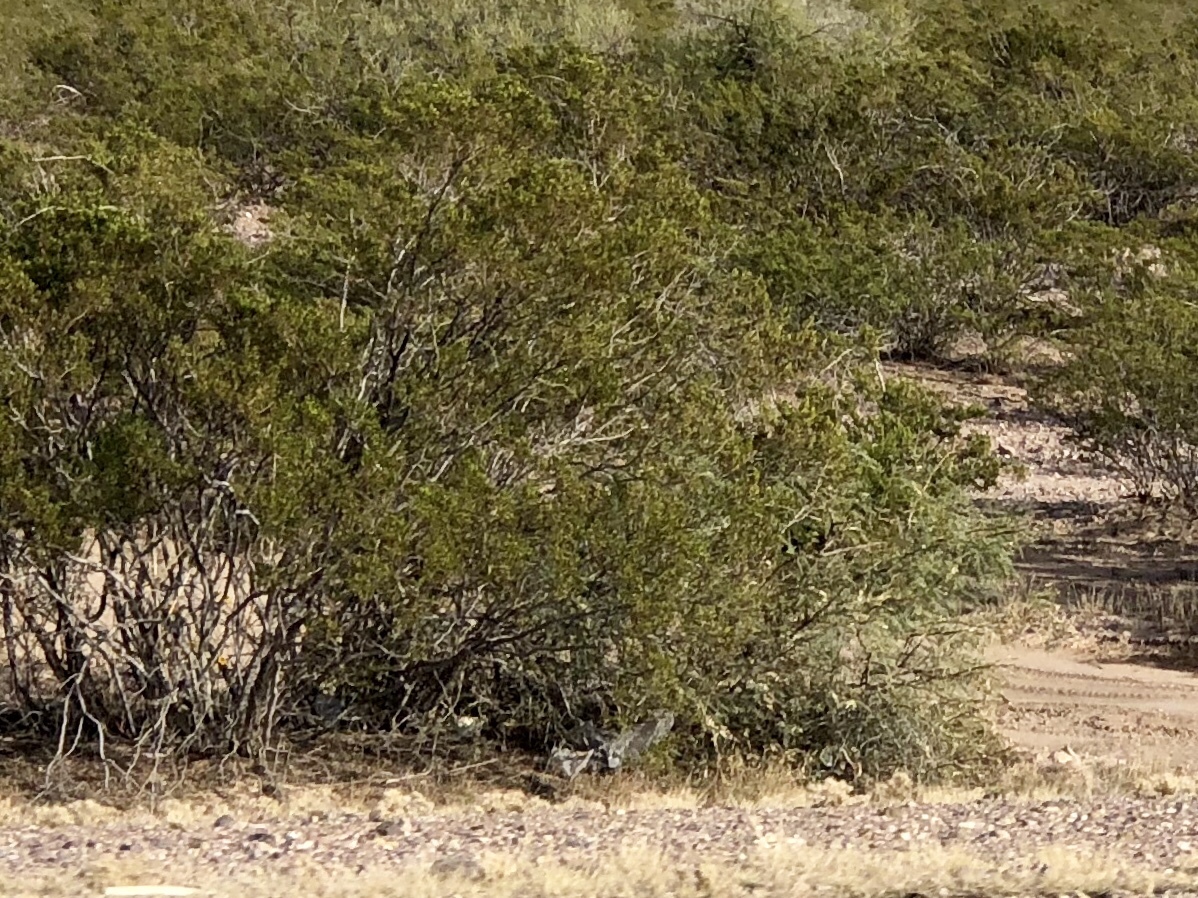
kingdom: Plantae
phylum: Tracheophyta
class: Magnoliopsida
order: Zygophyllales
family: Zygophyllaceae
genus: Larrea
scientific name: Larrea tridentata
